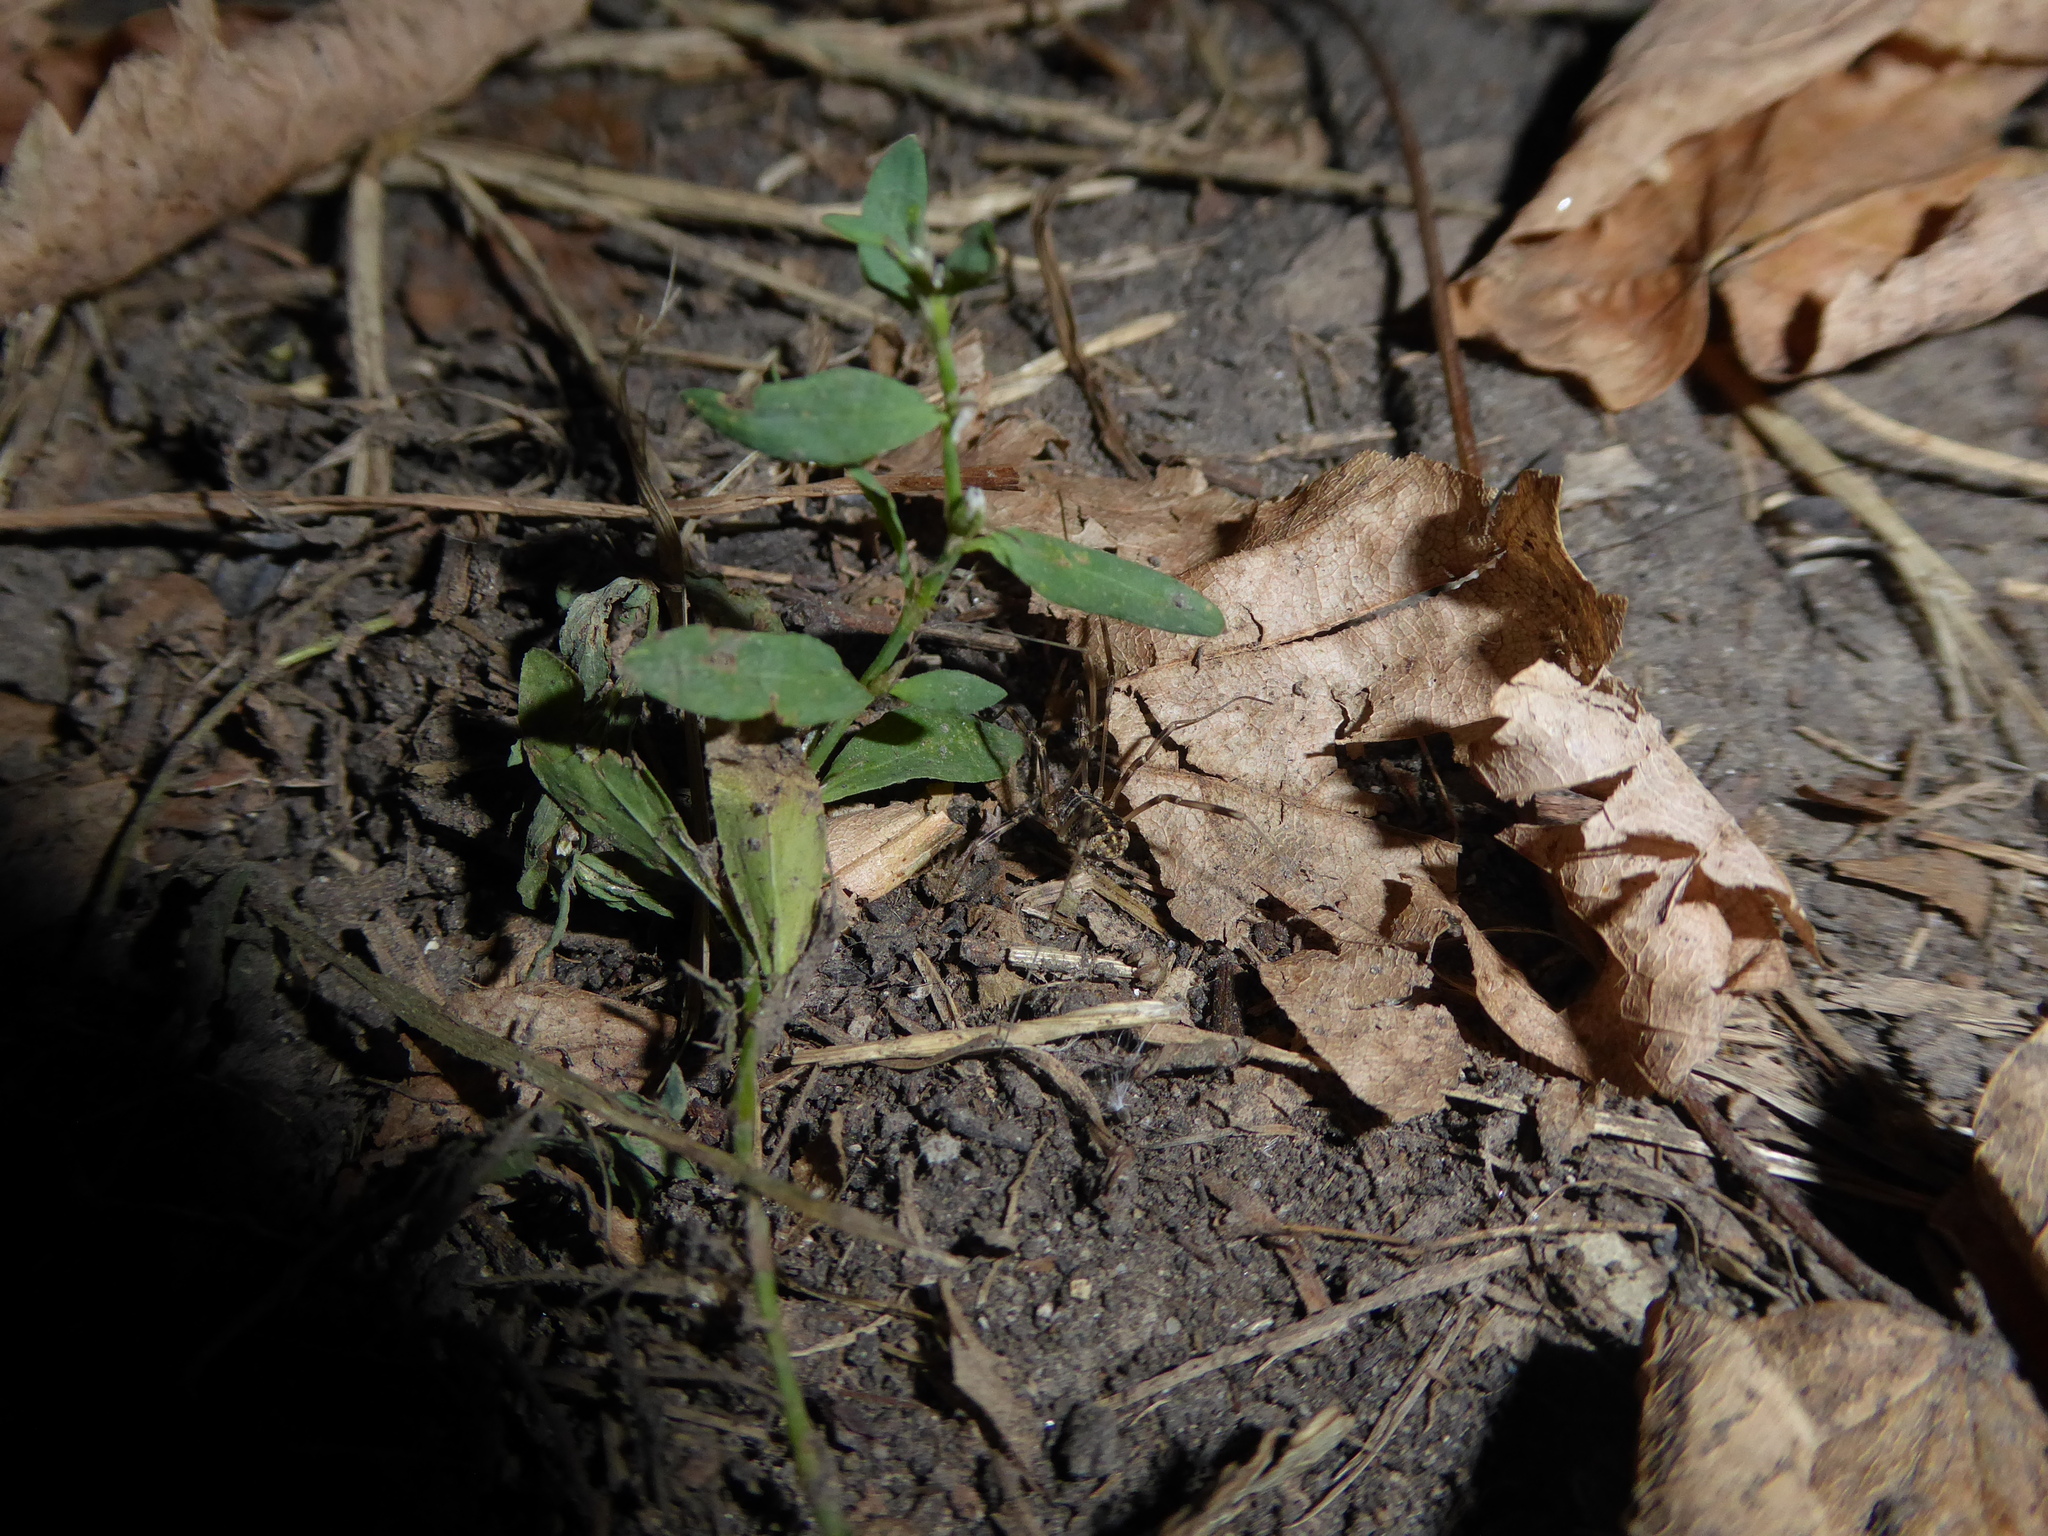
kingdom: Animalia
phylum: Arthropoda
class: Arachnida
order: Opiliones
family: Phalangiidae
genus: Opilio
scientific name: Opilio saxatilis
